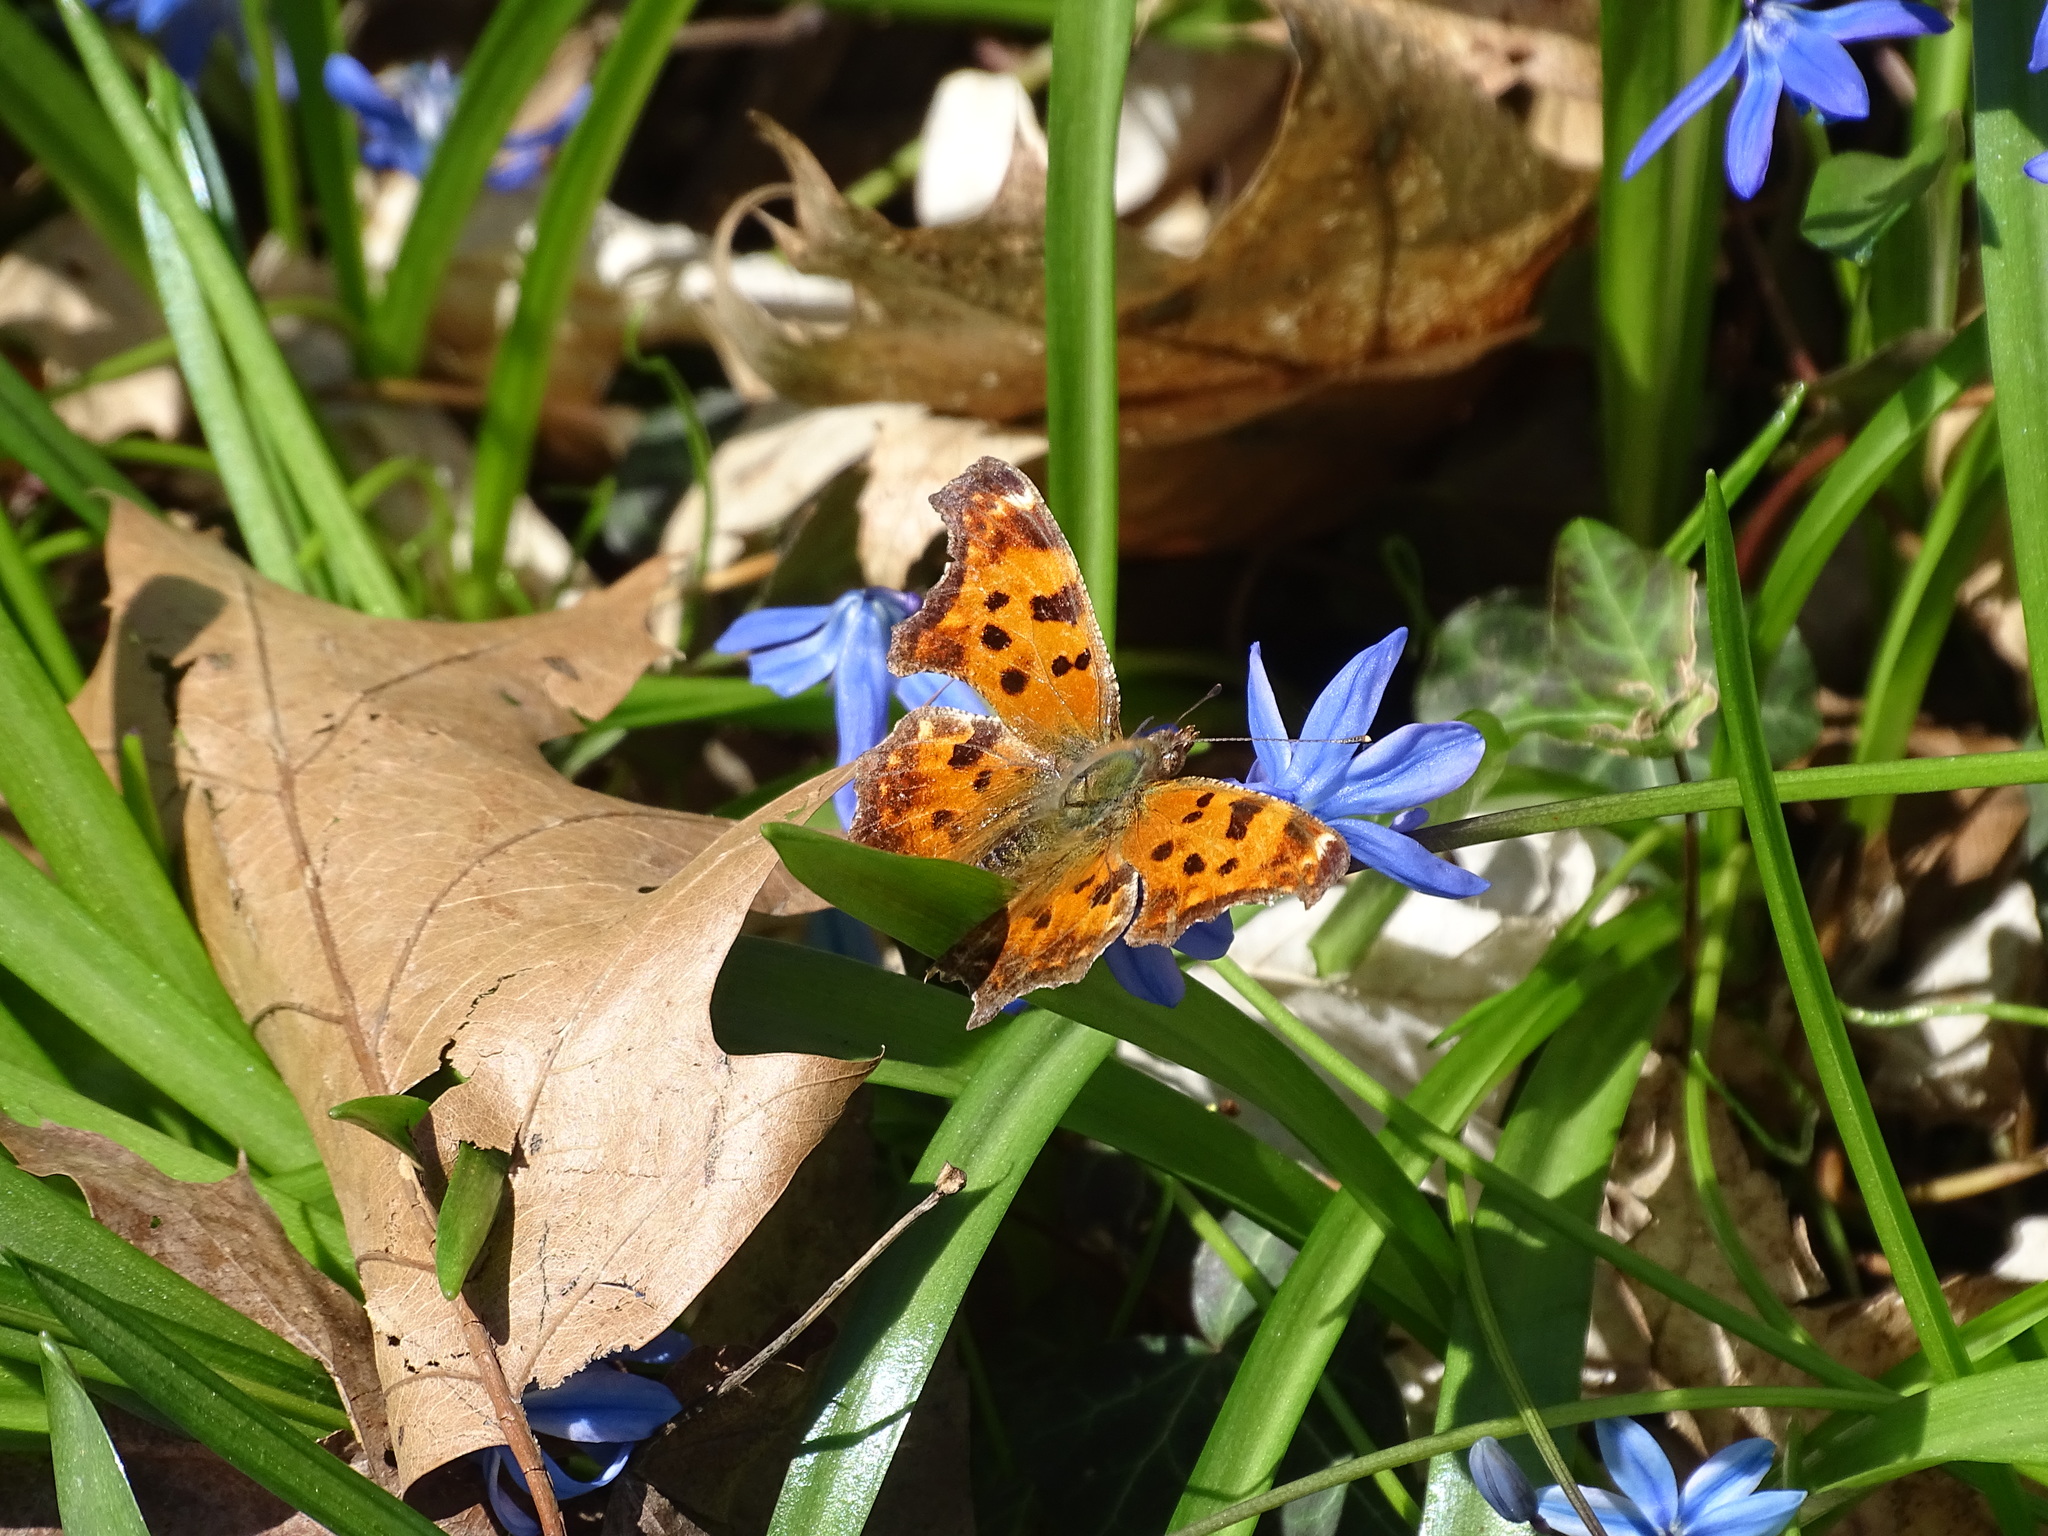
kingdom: Plantae
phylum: Tracheophyta
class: Liliopsida
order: Asparagales
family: Asparagaceae
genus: Scilla
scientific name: Scilla siberica
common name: Siberian squill
